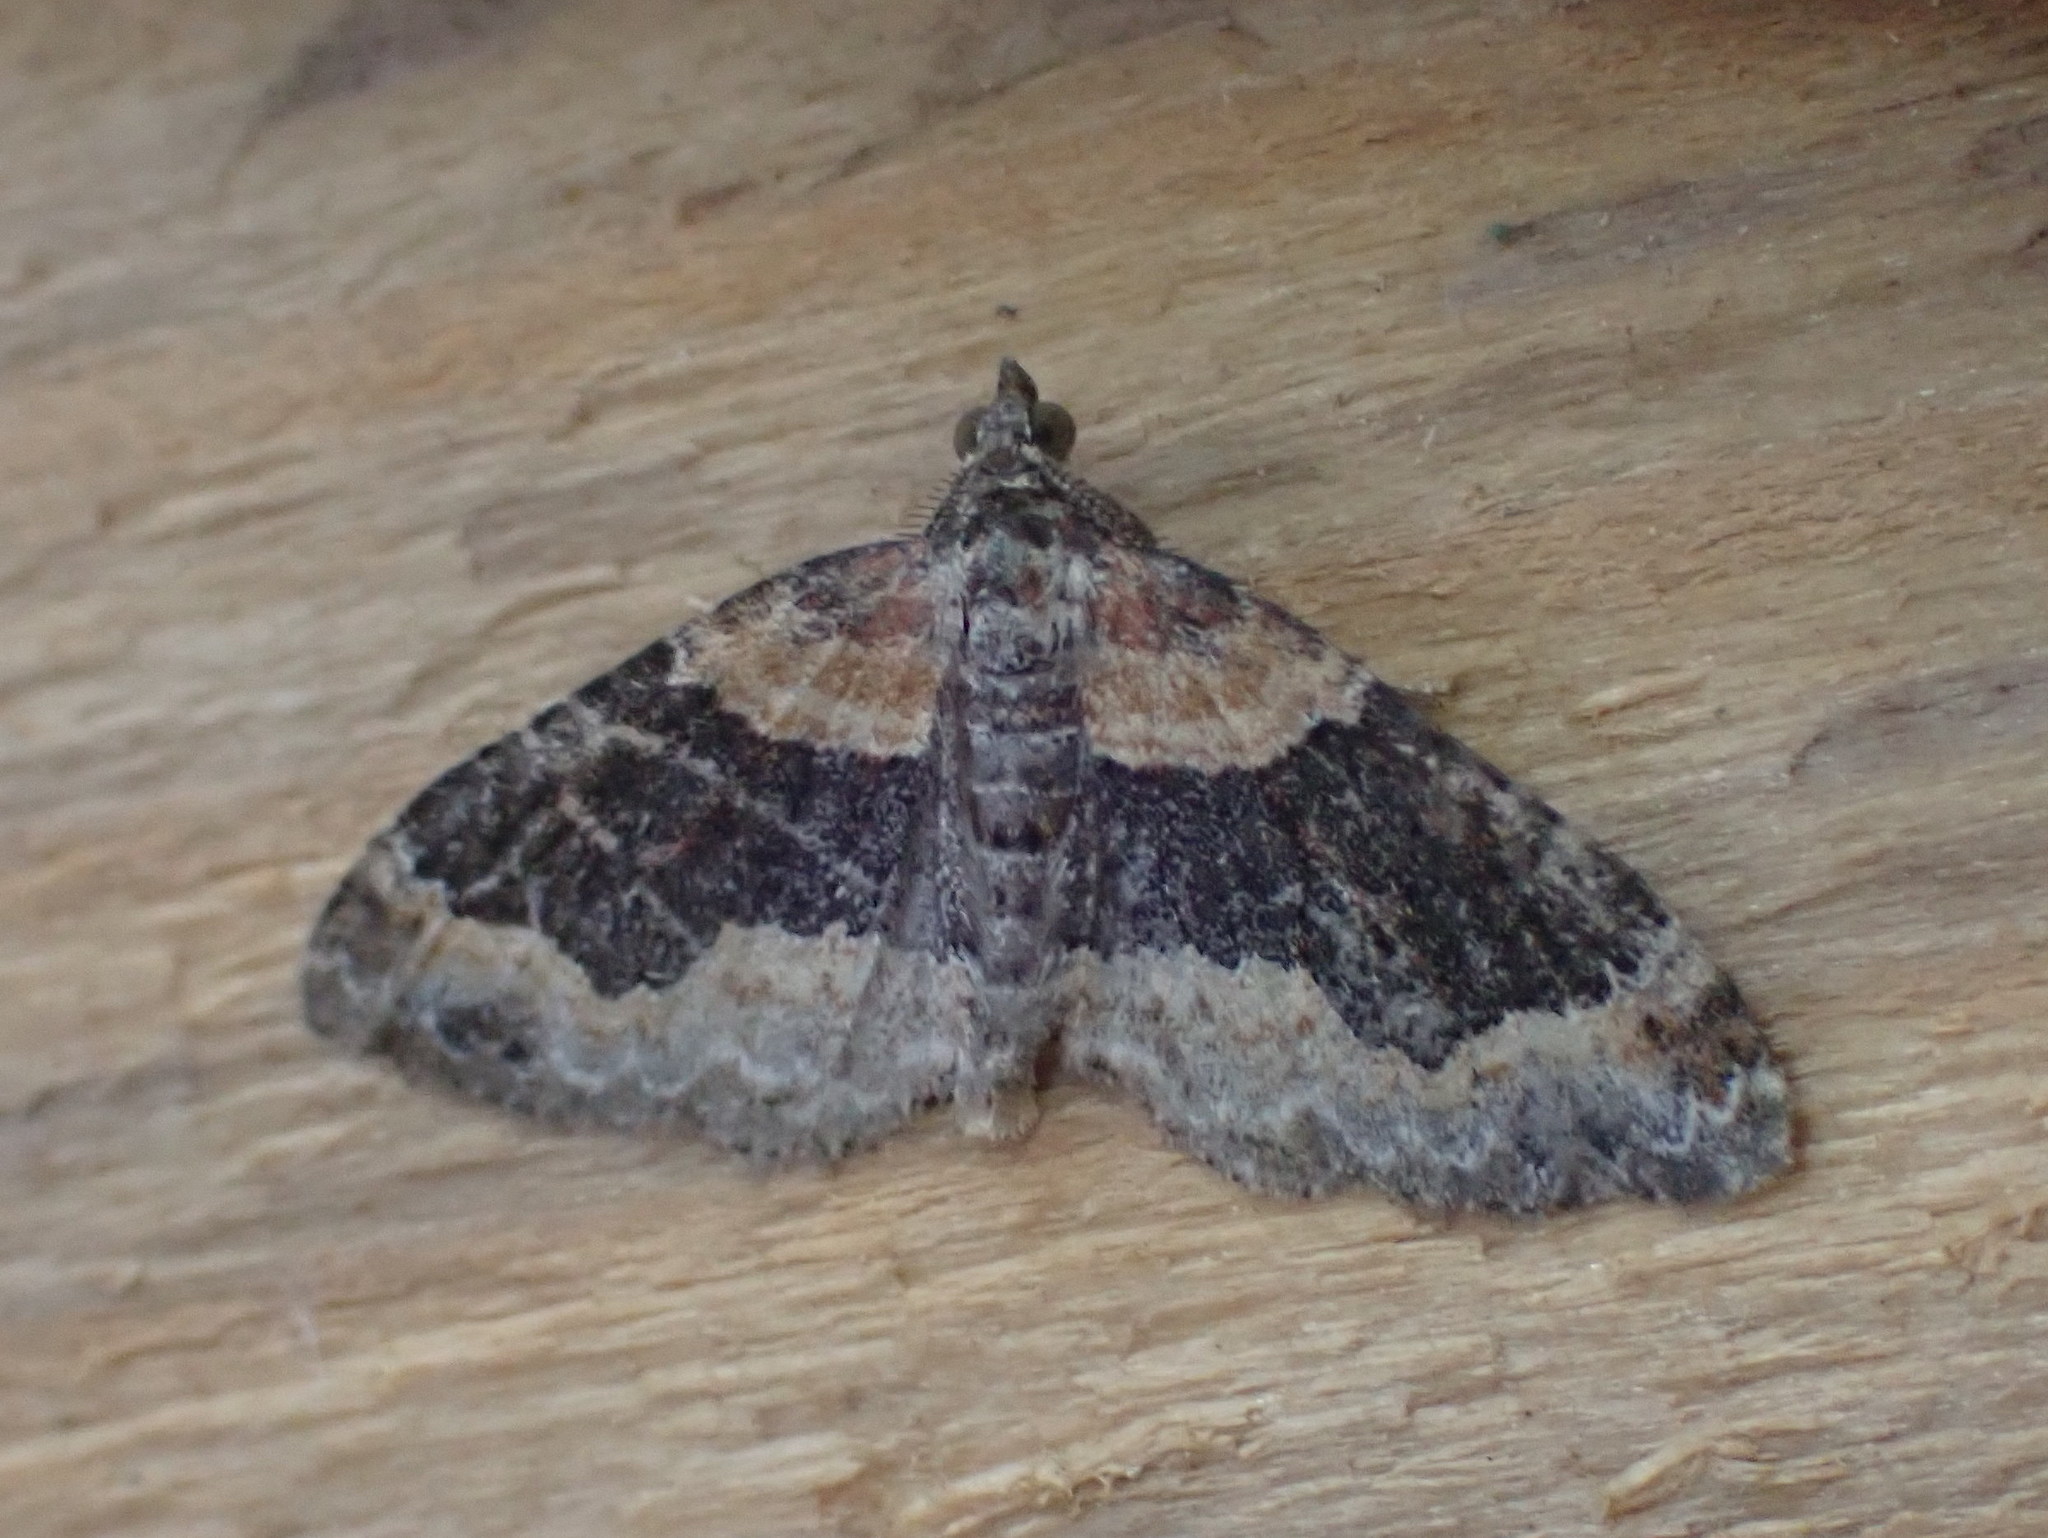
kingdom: Animalia
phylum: Arthropoda
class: Insecta
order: Lepidoptera
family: Geometridae
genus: Xanthorhoe
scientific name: Xanthorhoe ferrugata
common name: Dark-barred twin-spot carpet
